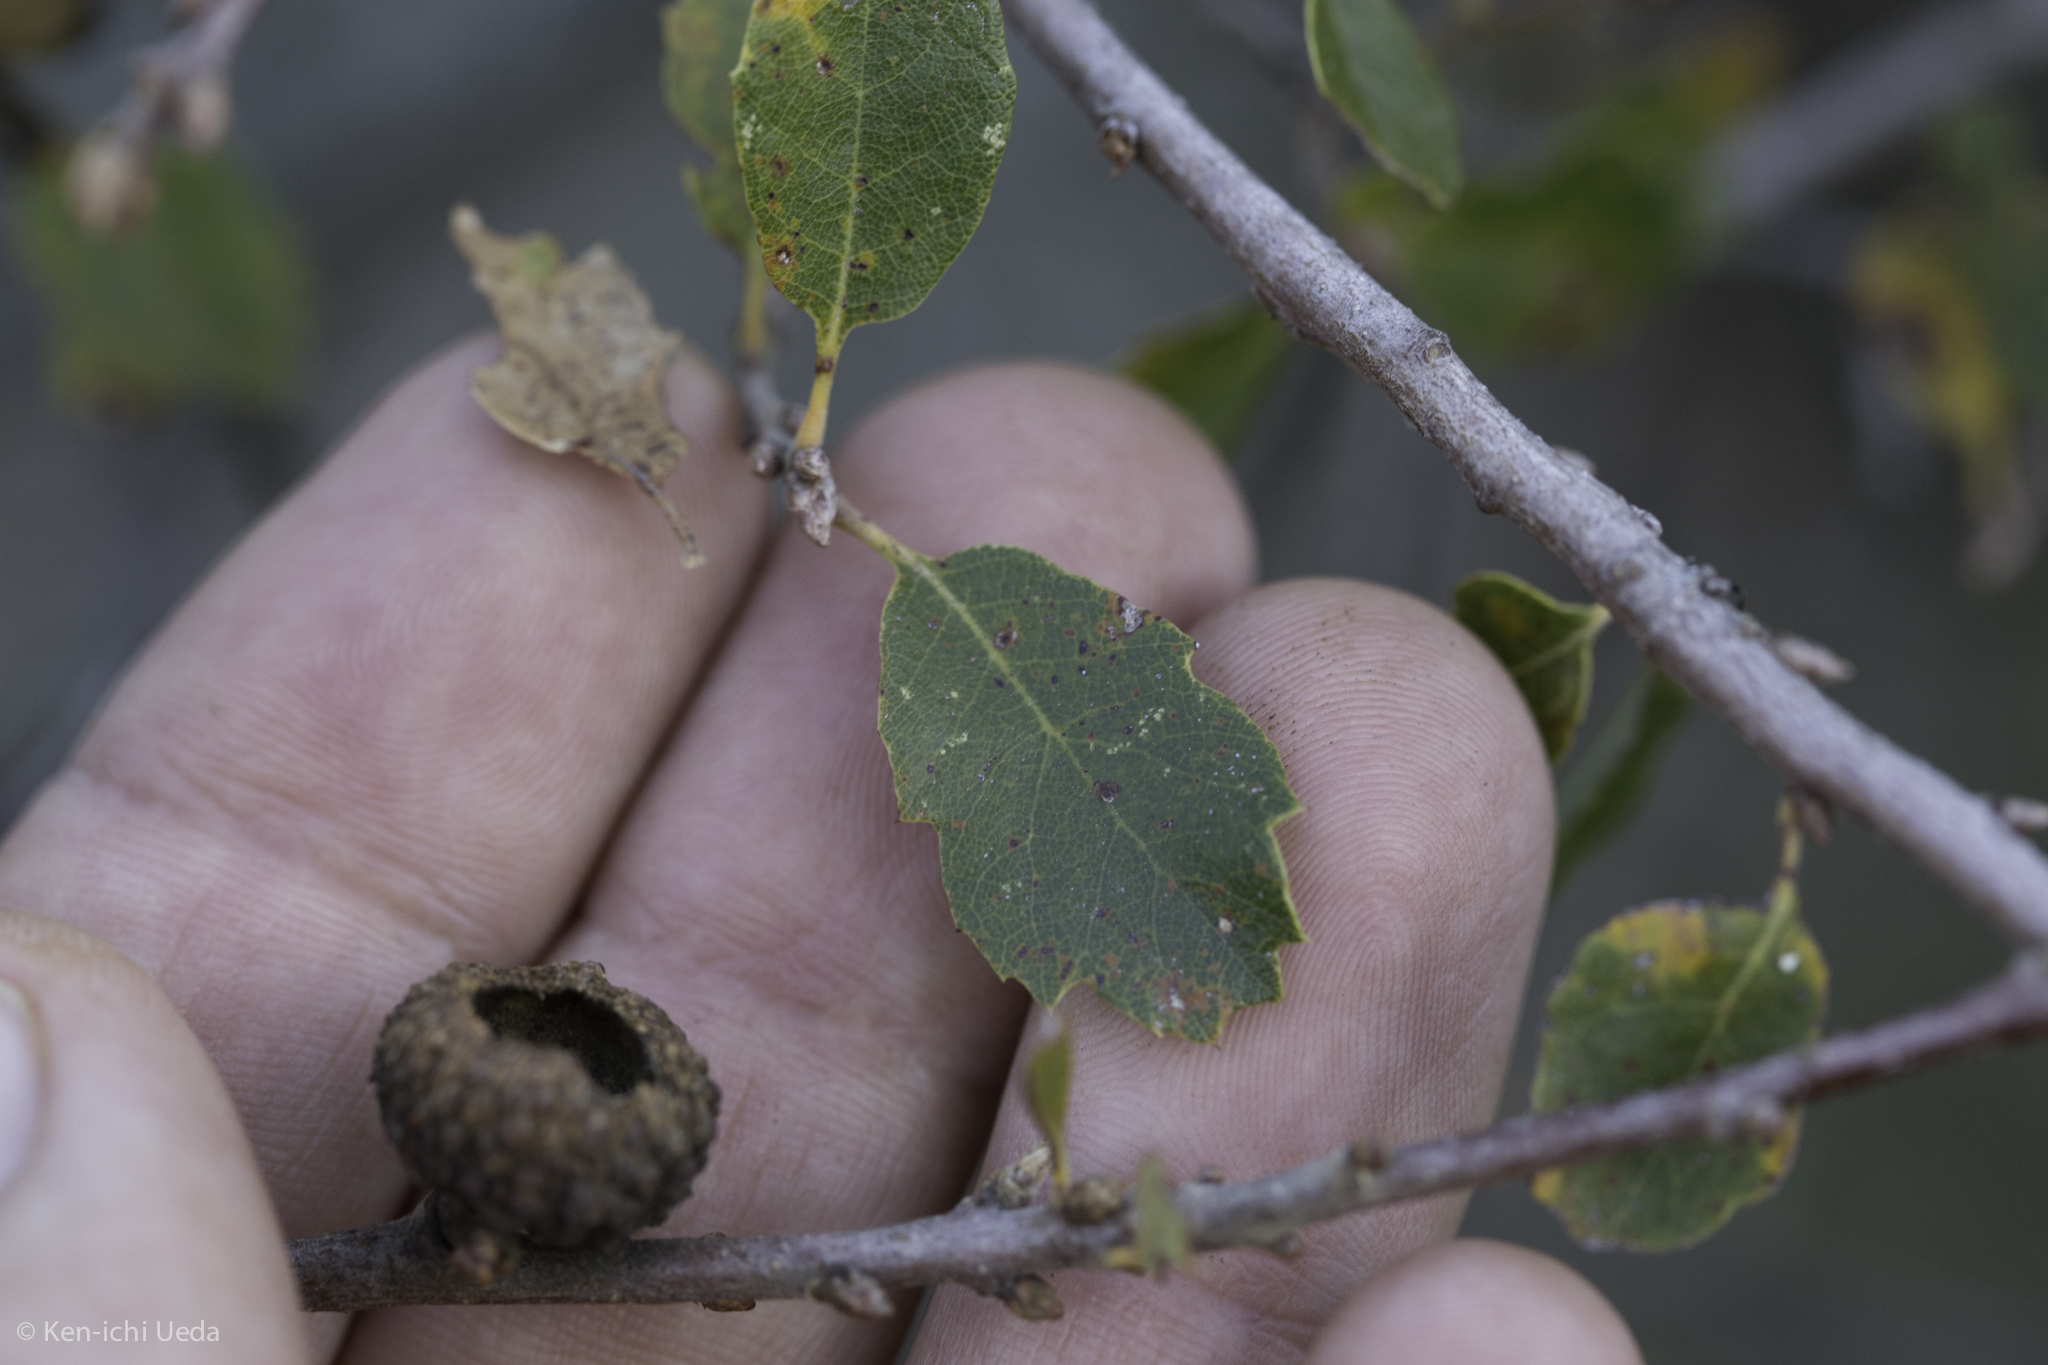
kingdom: Plantae
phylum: Tracheophyta
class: Magnoliopsida
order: Fagales
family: Fagaceae
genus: Quercus
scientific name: Quercus berberidifolia
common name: California scrub oak
